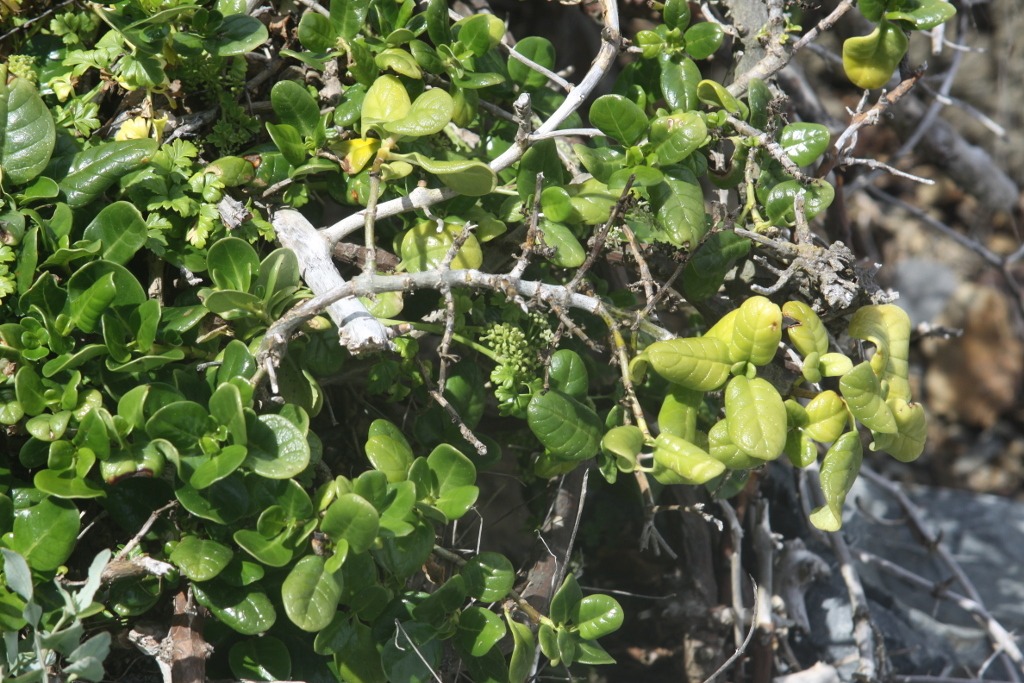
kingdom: Plantae
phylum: Tracheophyta
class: Magnoliopsida
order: Gentianales
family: Rubiaceae
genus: Coprosma
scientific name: Coprosma repens
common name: Tree bedstraw
